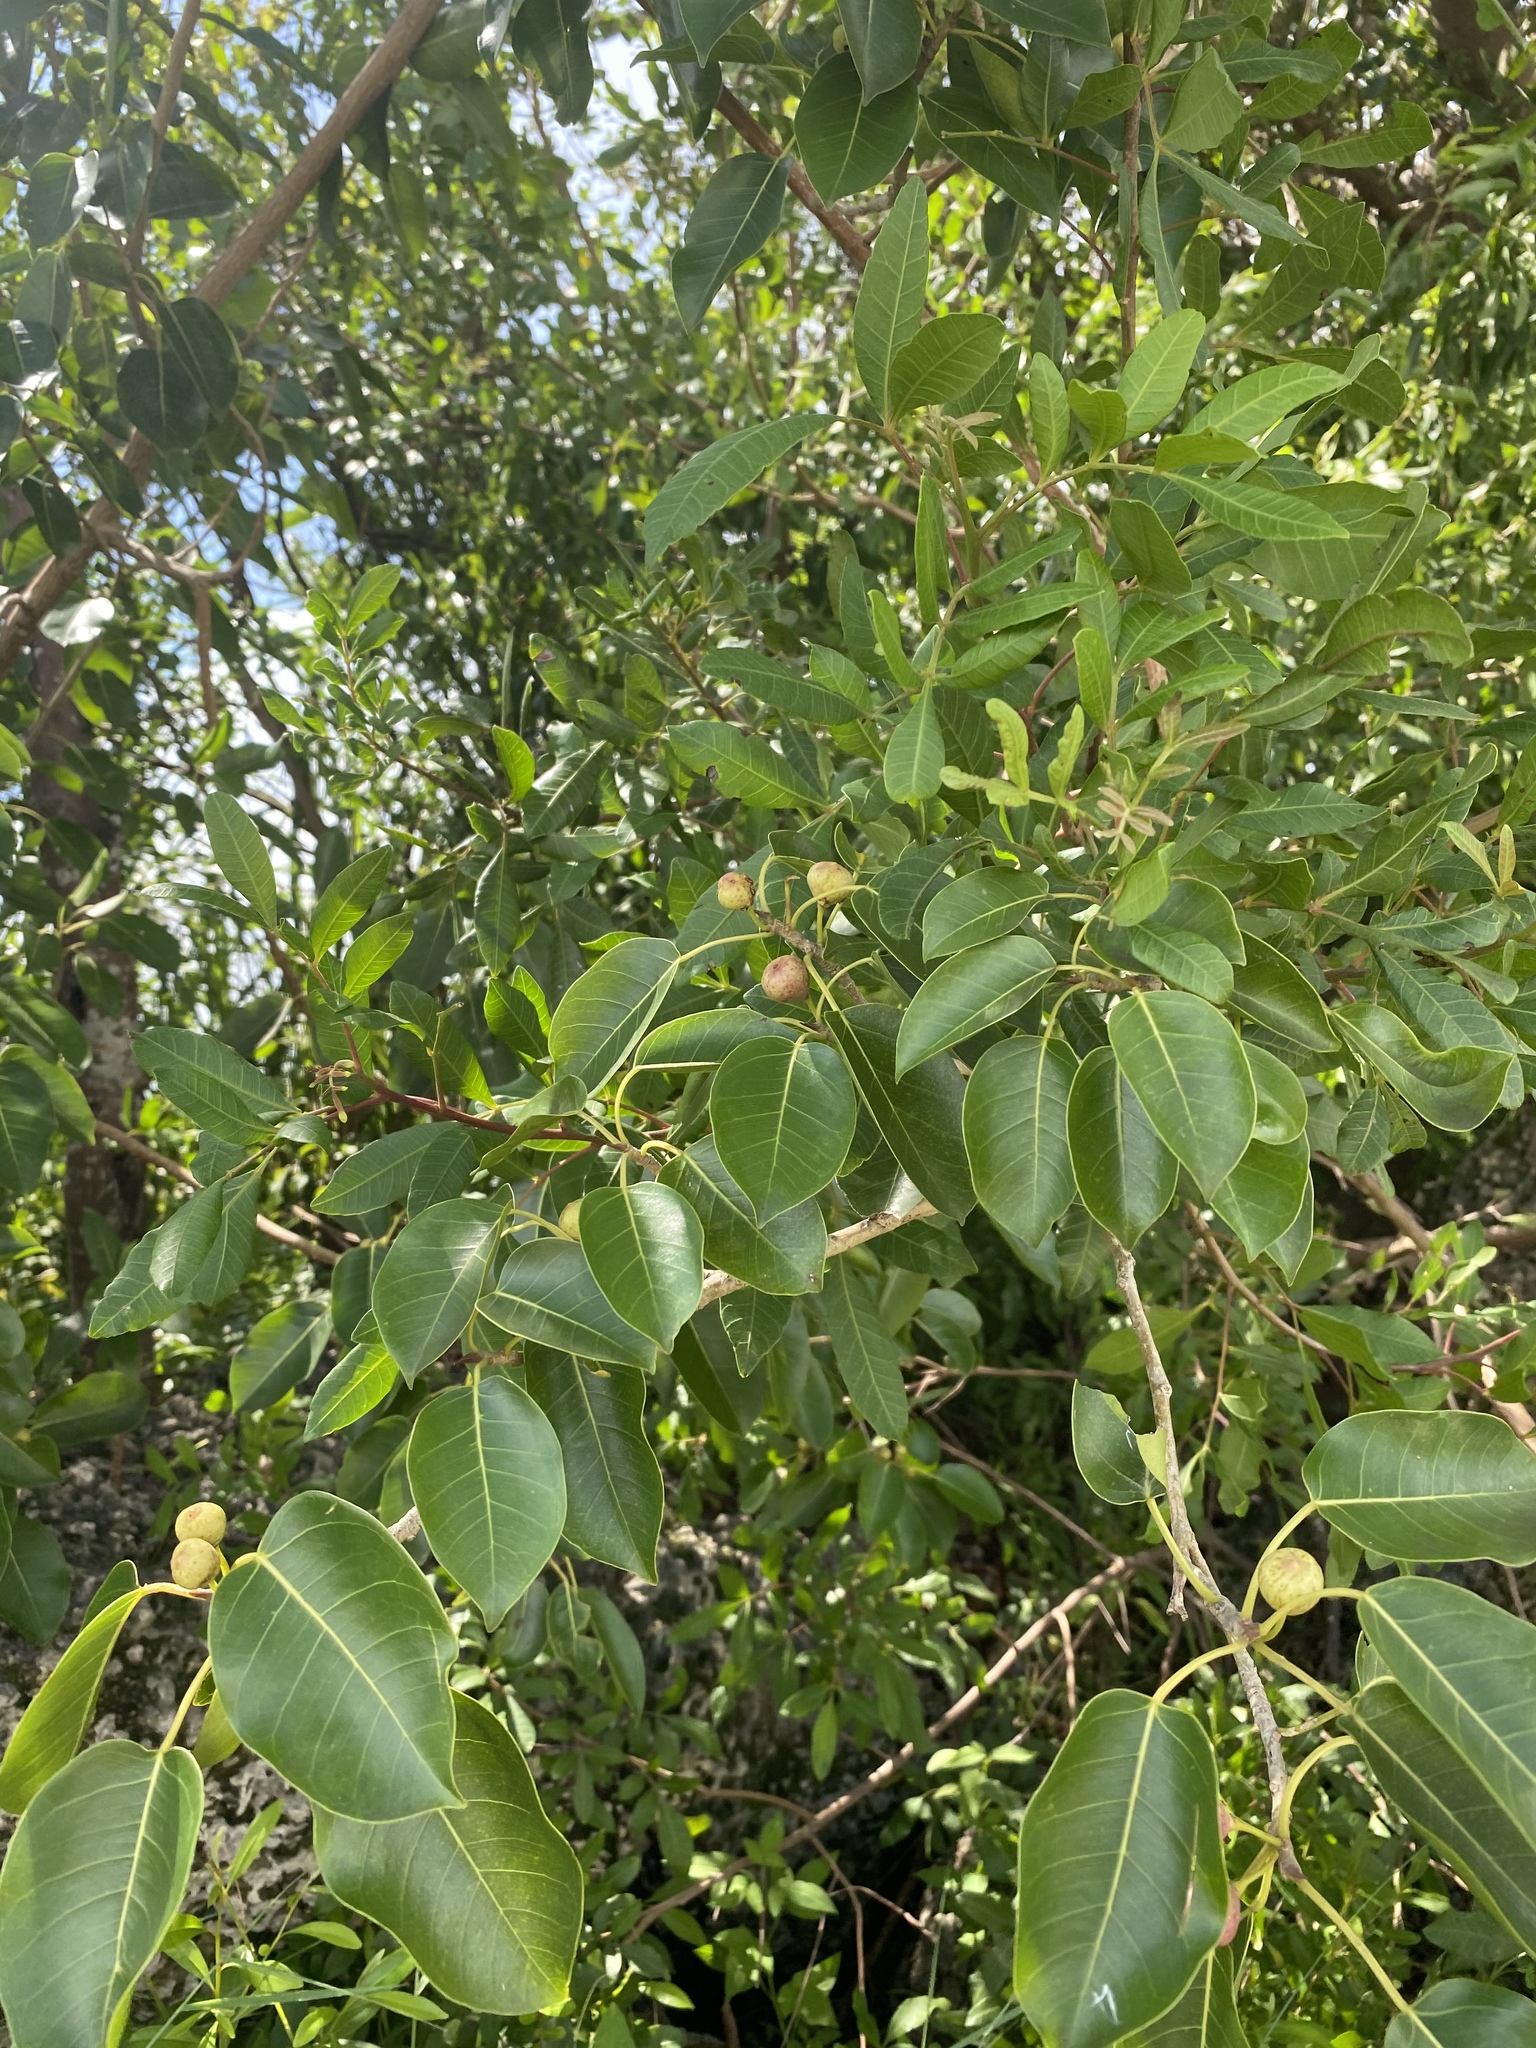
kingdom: Plantae
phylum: Tracheophyta
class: Magnoliopsida
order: Rosales
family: Moraceae
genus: Ficus
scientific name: Ficus citrifolia
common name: Strangler fig
